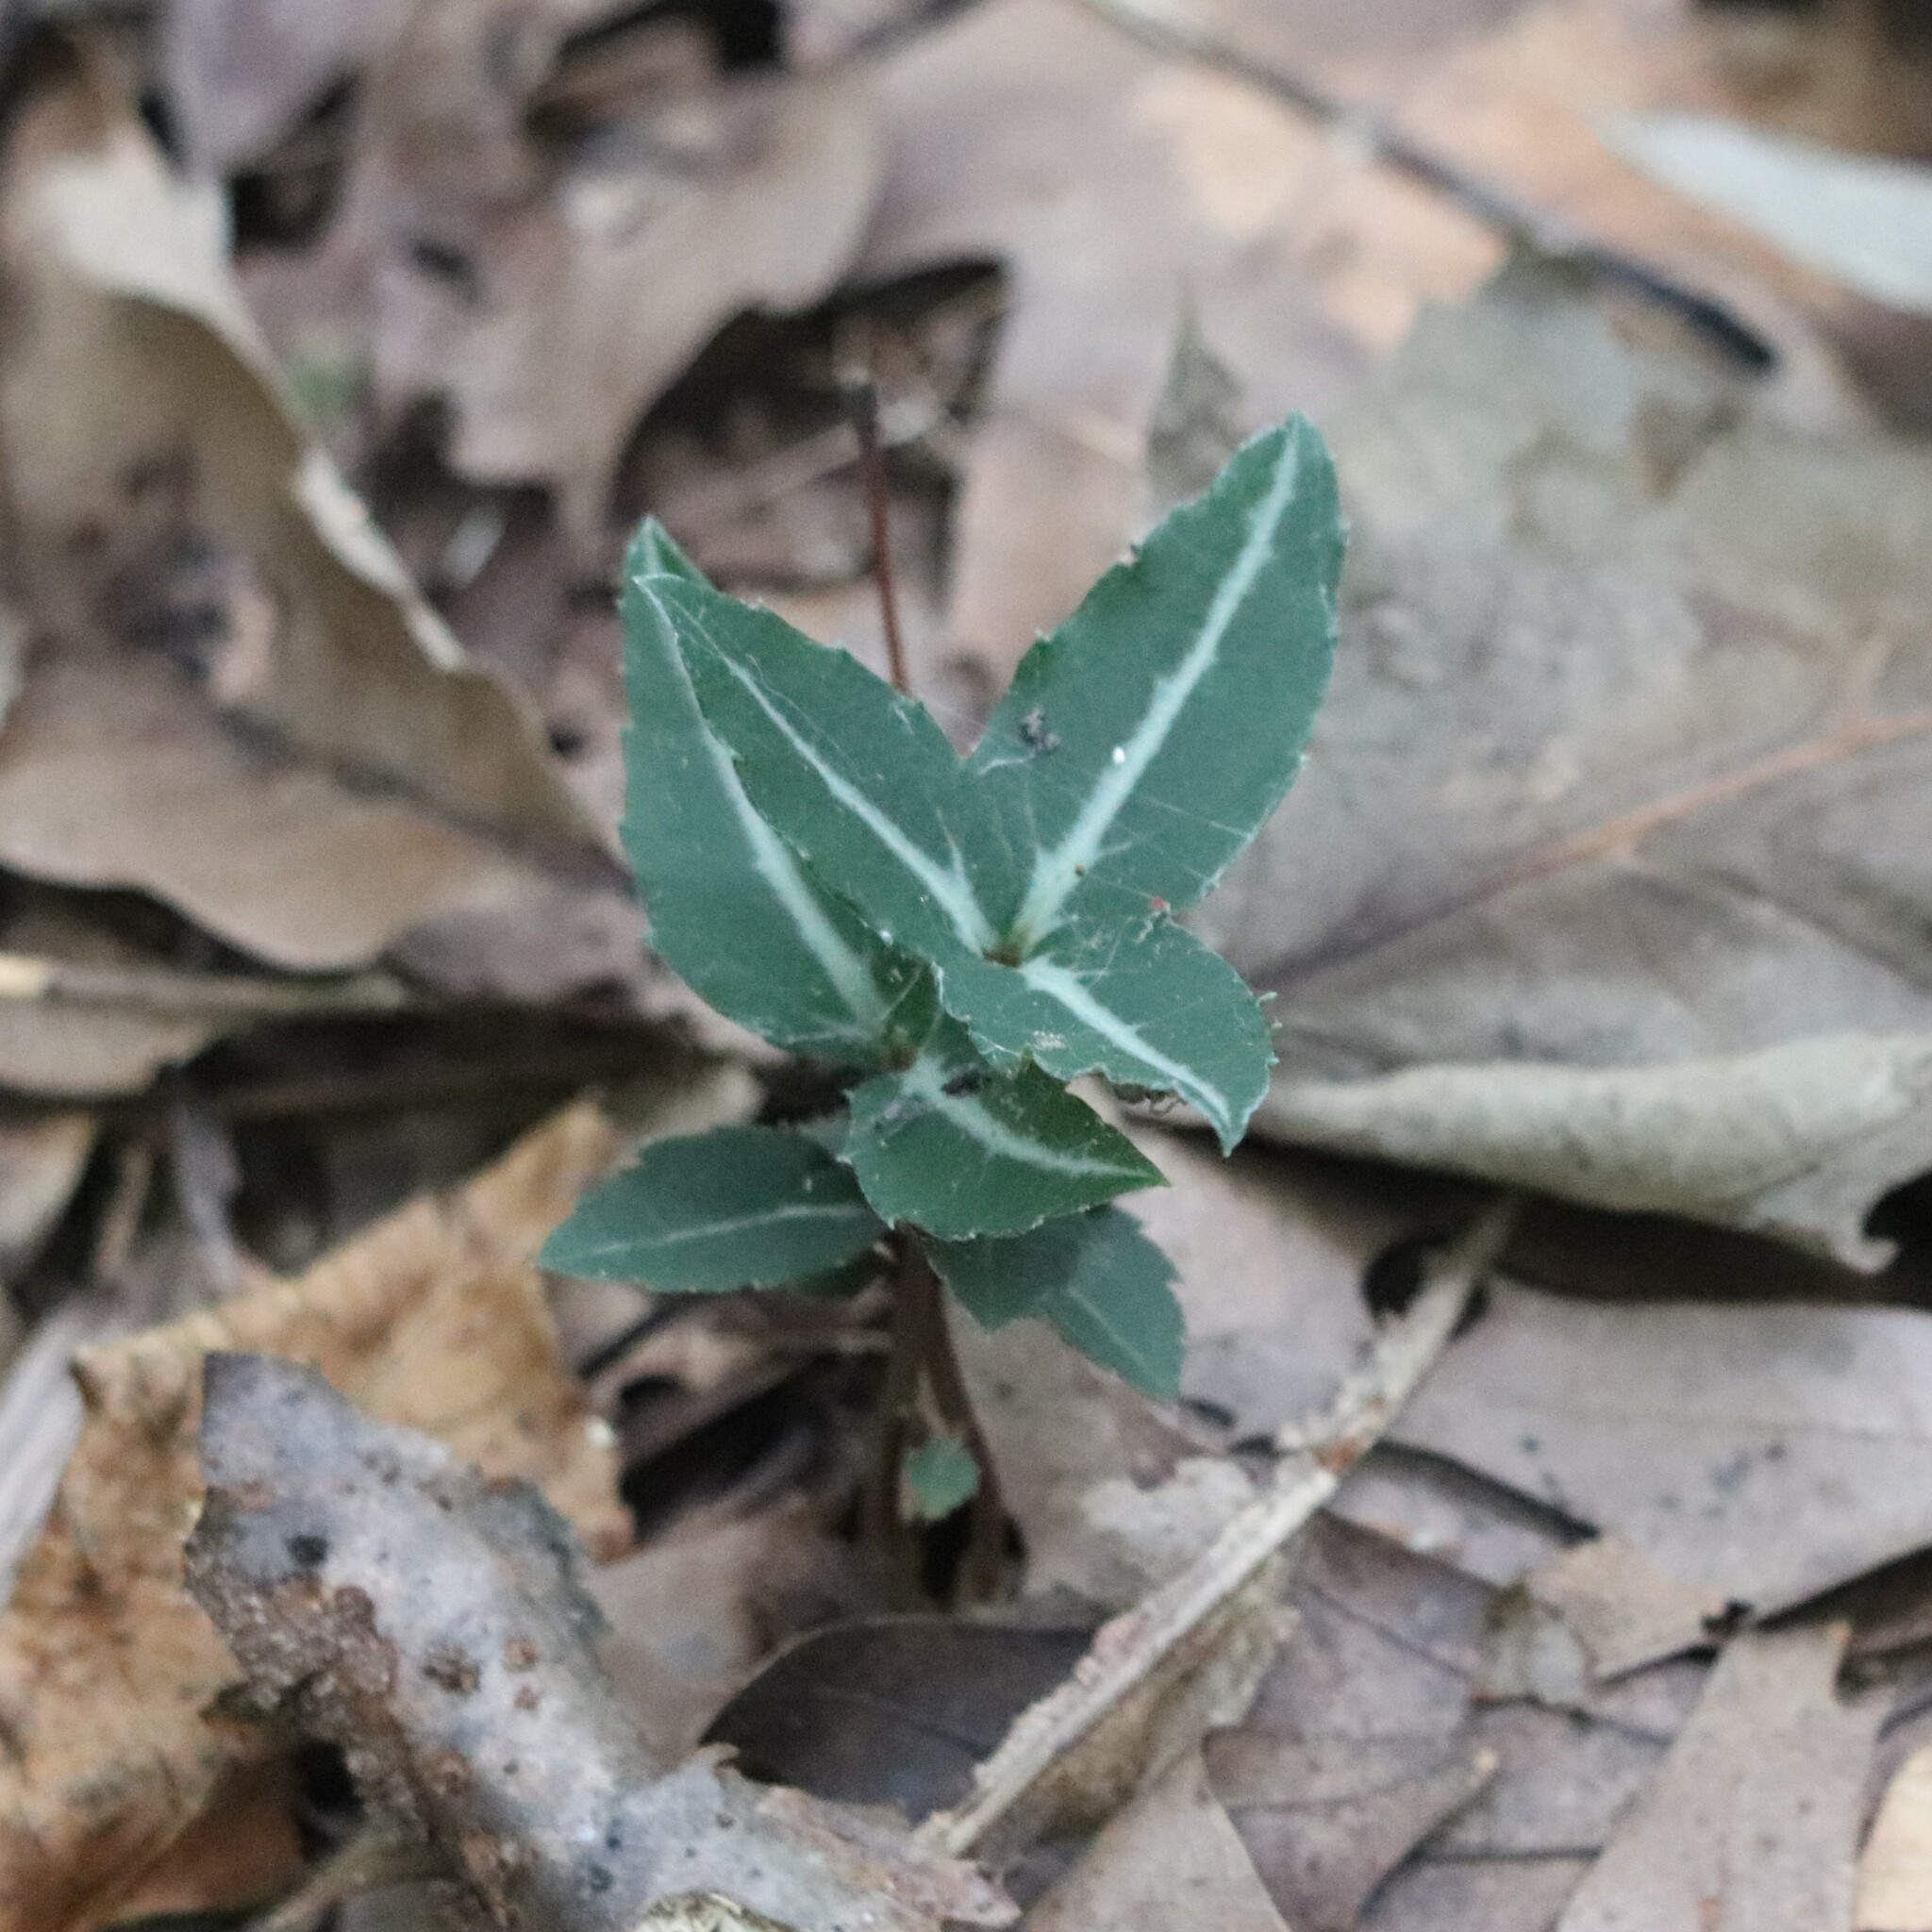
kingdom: Plantae
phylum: Tracheophyta
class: Magnoliopsida
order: Ericales
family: Ericaceae
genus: Chimaphila
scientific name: Chimaphila maculata
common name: Spotted pipsissewa
